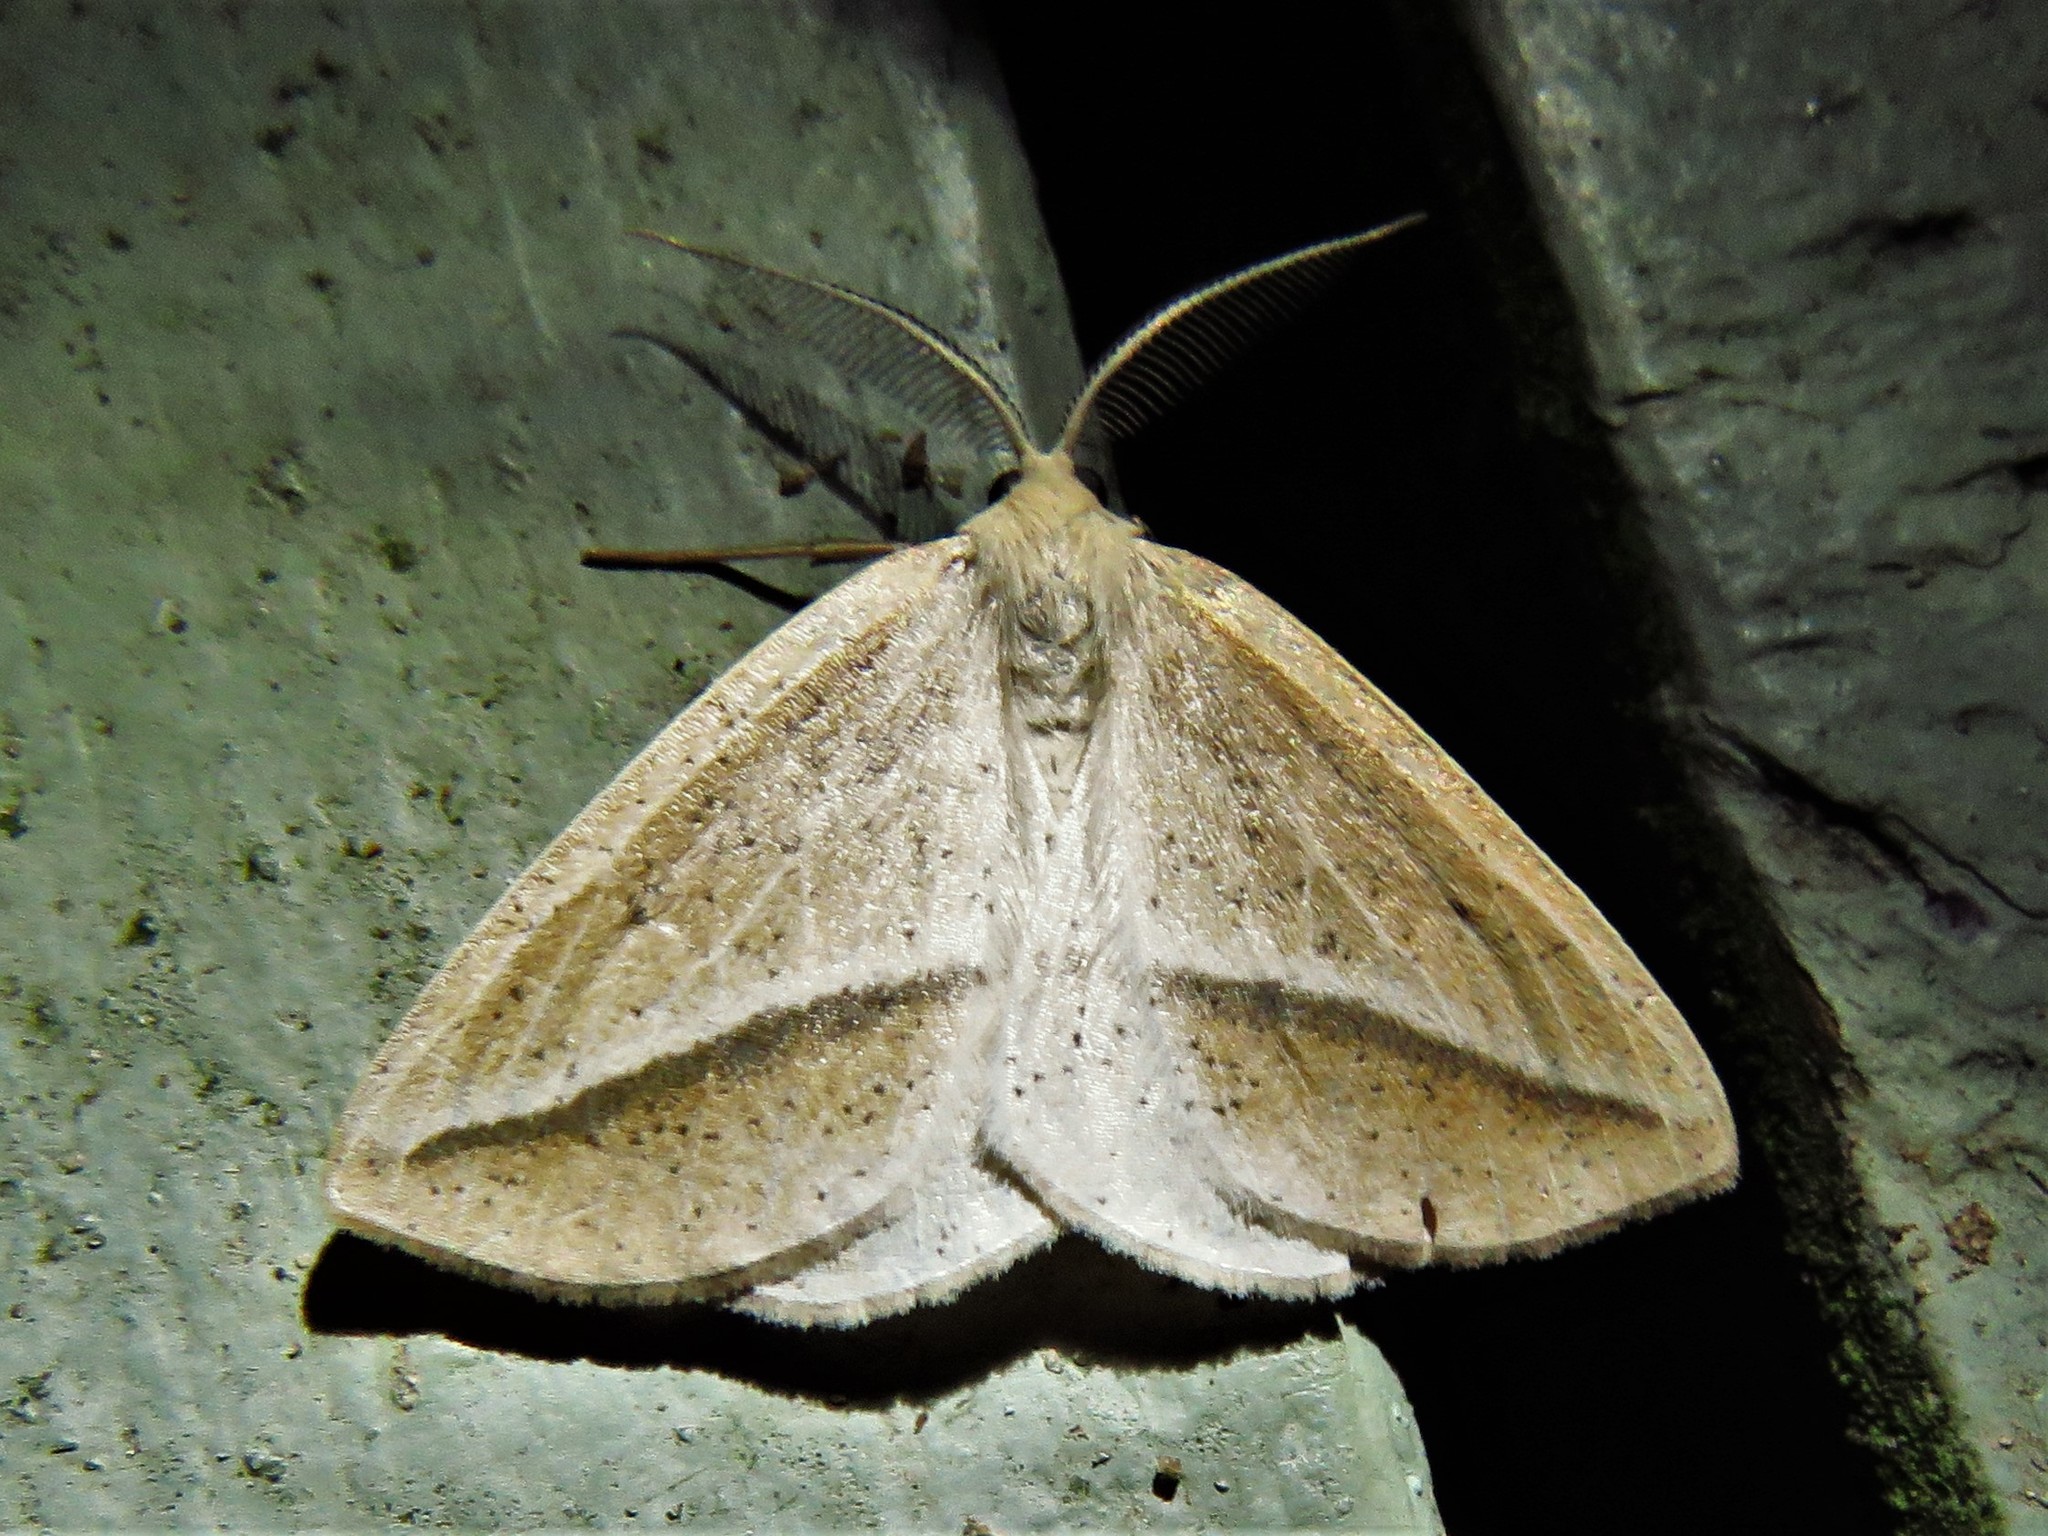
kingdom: Animalia
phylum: Arthropoda
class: Insecta
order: Lepidoptera
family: Geometridae
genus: Lychnosea
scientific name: Lychnosea intermicata
